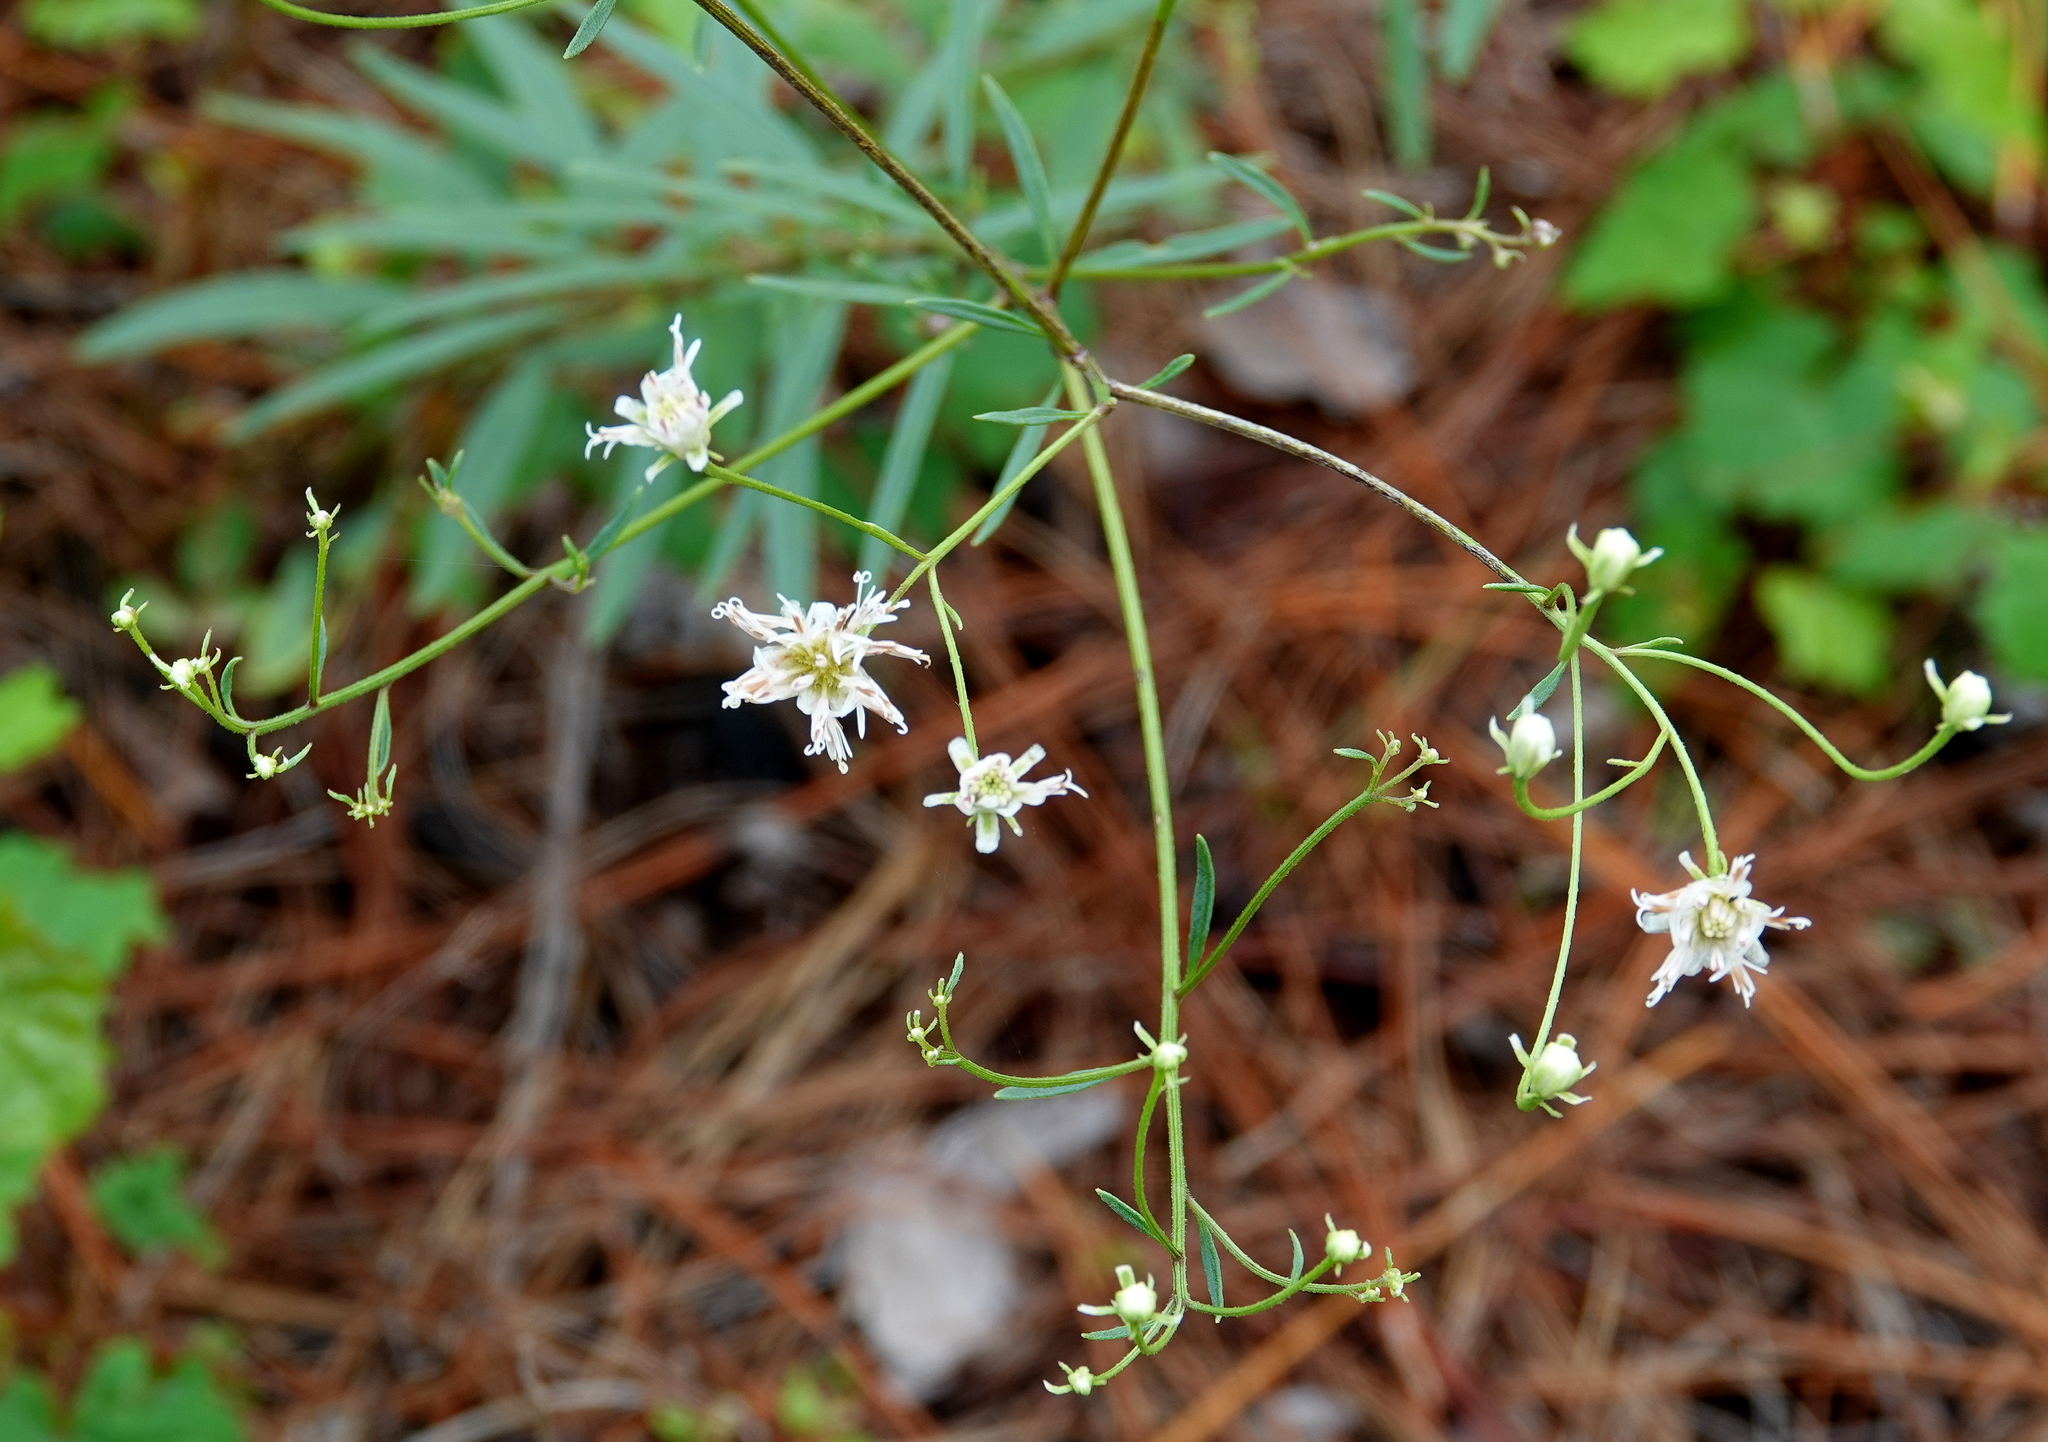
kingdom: Plantae
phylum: Tracheophyta
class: Magnoliopsida
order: Asterales
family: Asteraceae
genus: Palafoxia
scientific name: Palafoxia integrifolia
